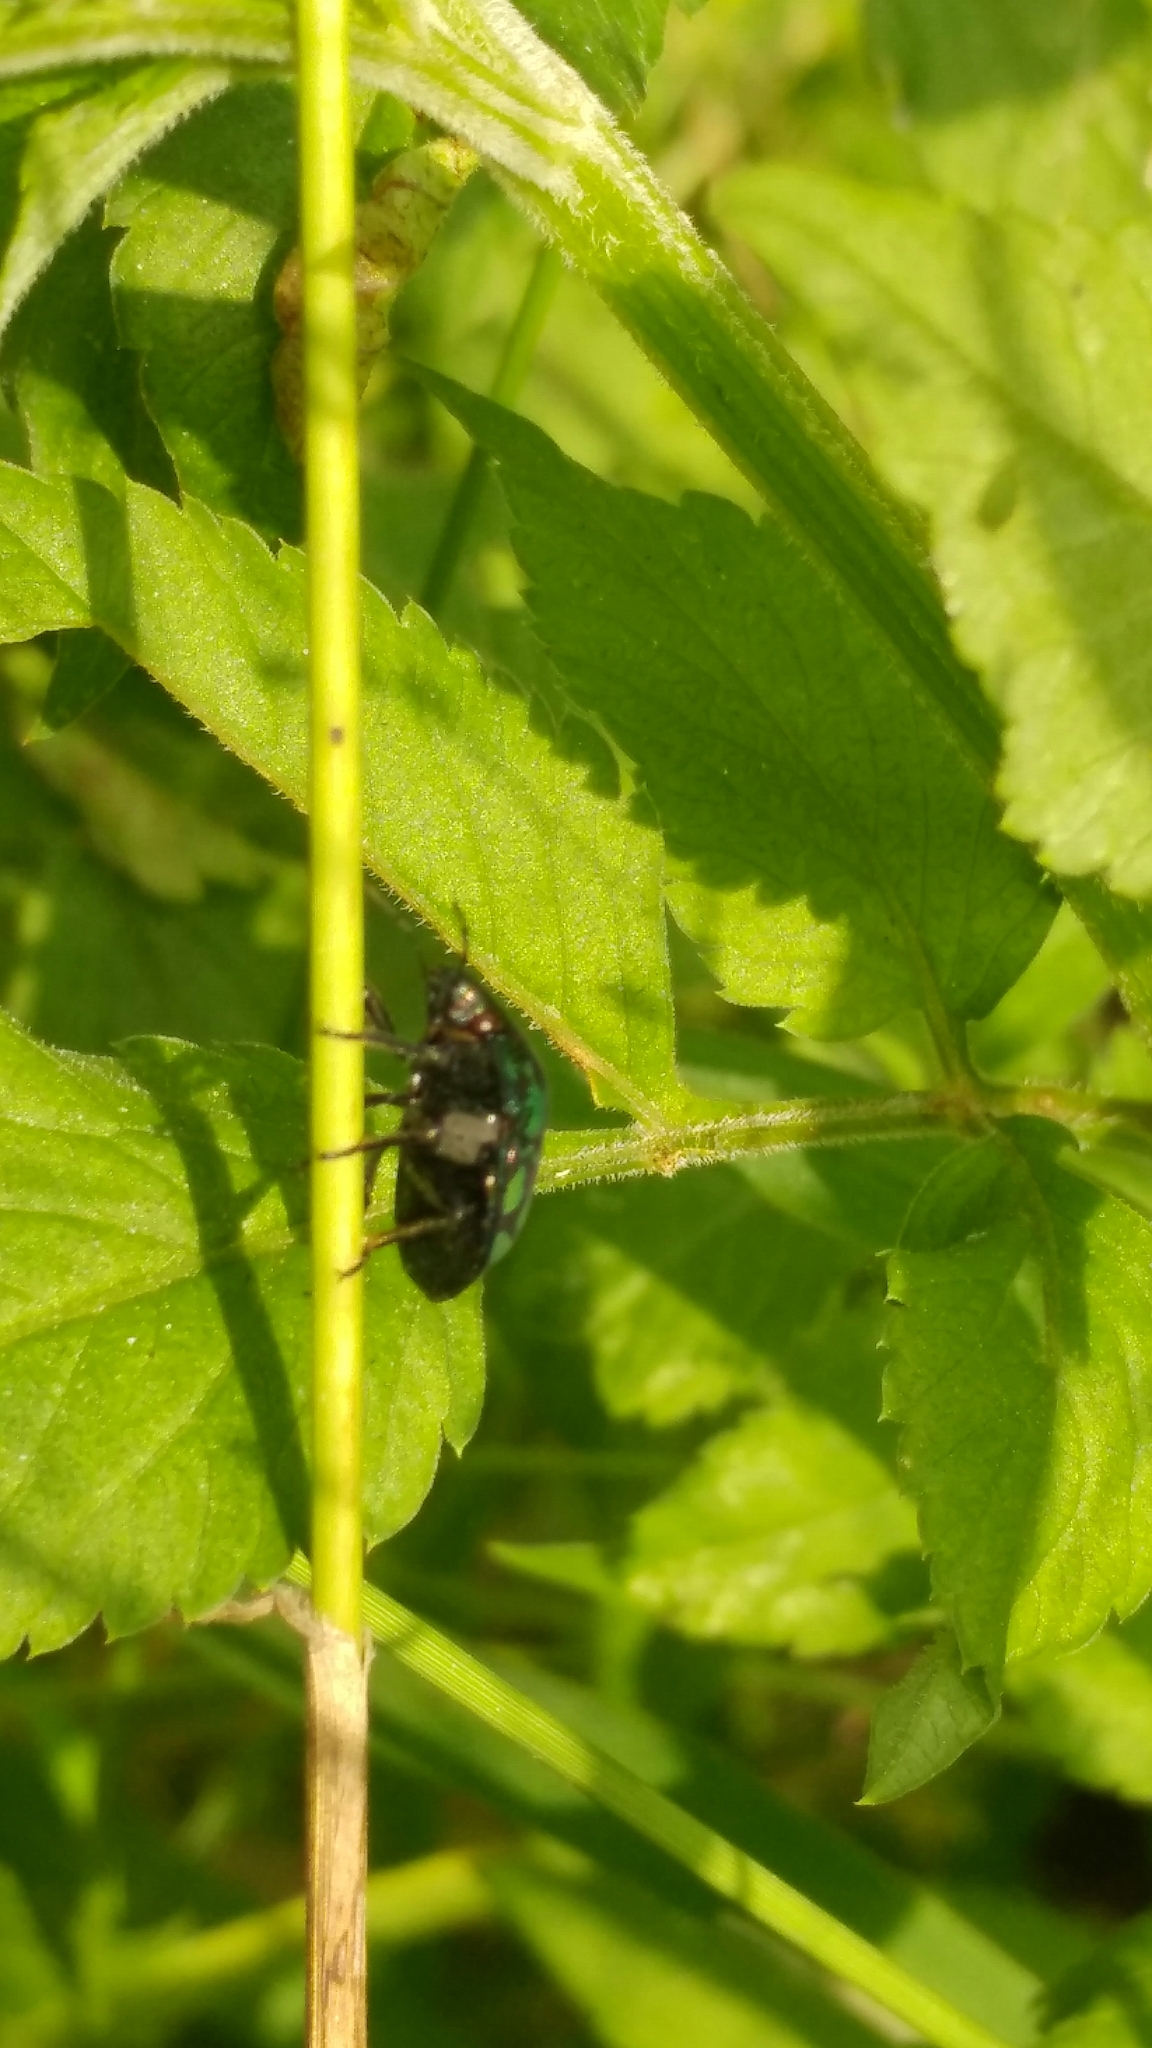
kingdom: Animalia
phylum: Arthropoda
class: Insecta
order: Hemiptera
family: Scutelleridae
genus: Orsilochides
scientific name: Orsilochides variabilis
